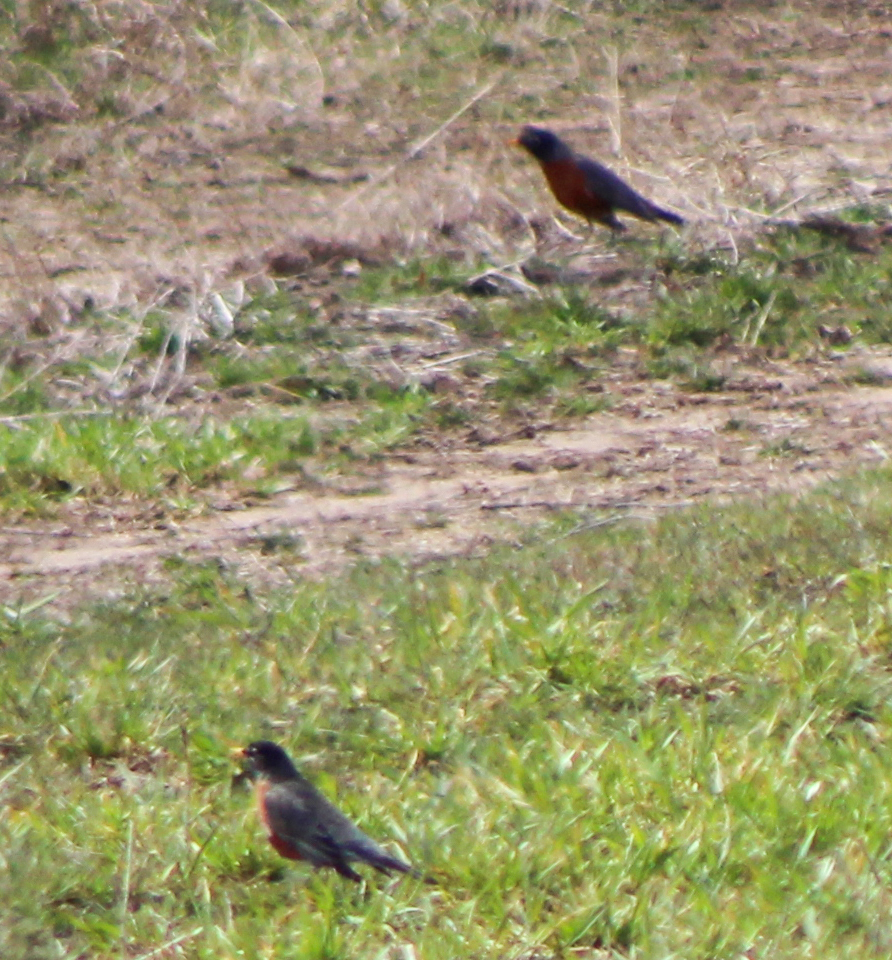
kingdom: Animalia
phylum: Chordata
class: Aves
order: Passeriformes
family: Turdidae
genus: Turdus
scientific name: Turdus migratorius
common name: American robin
